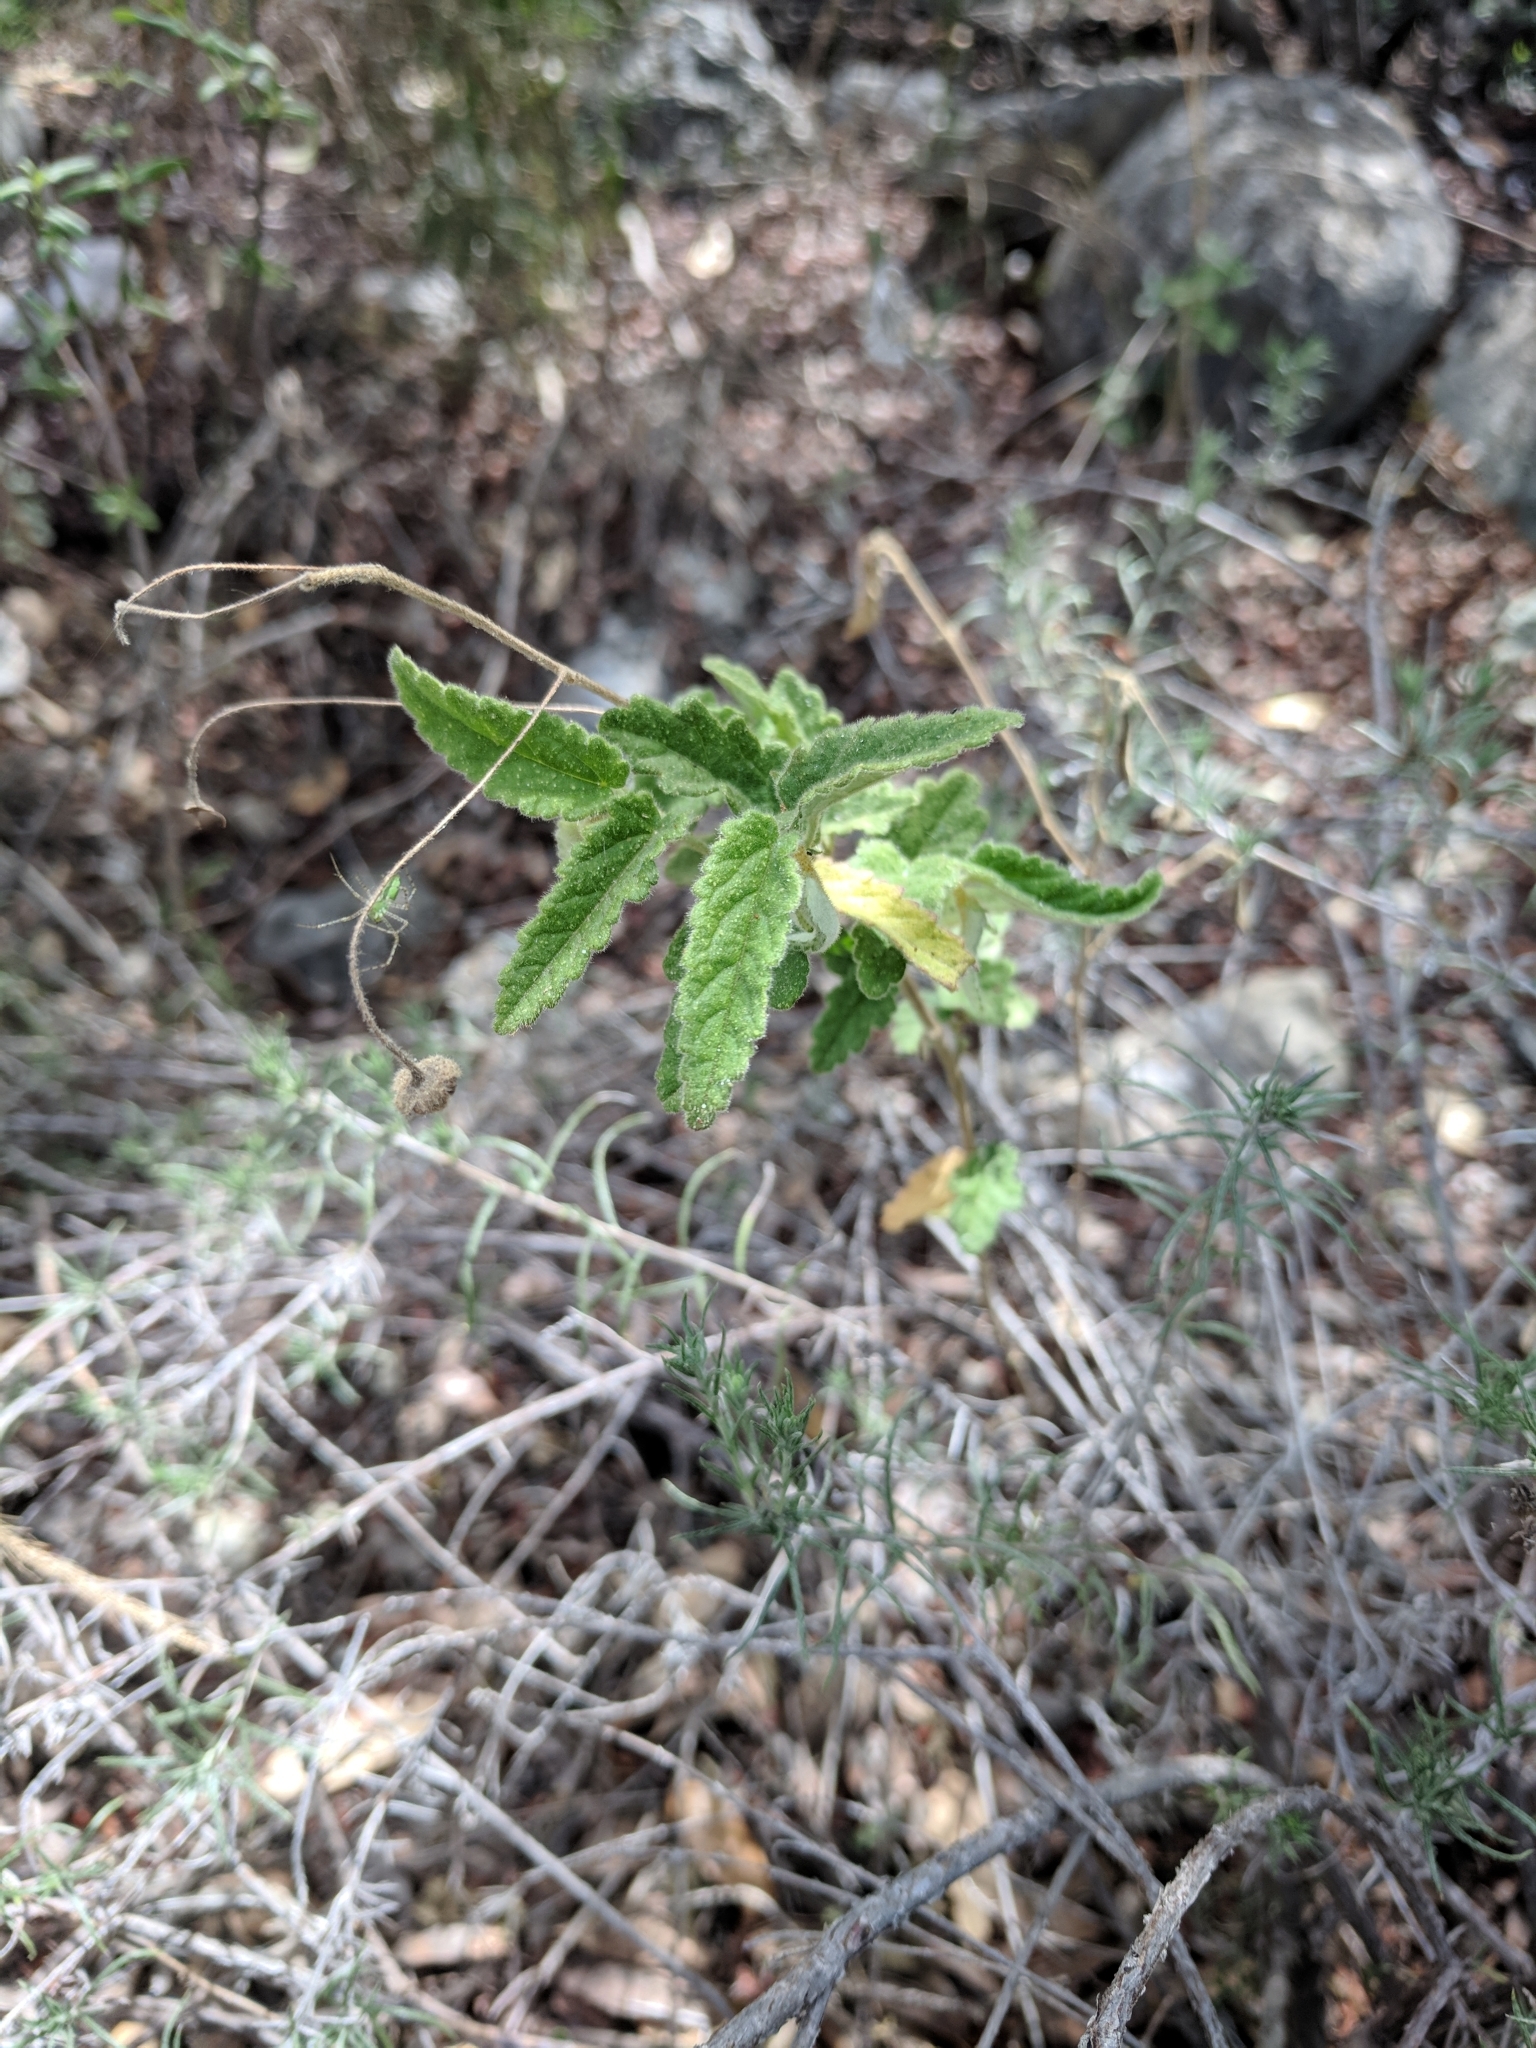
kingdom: Plantae
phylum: Tracheophyta
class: Magnoliopsida
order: Malvales
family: Malvaceae
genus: Meximalva
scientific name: Meximalva filipes
